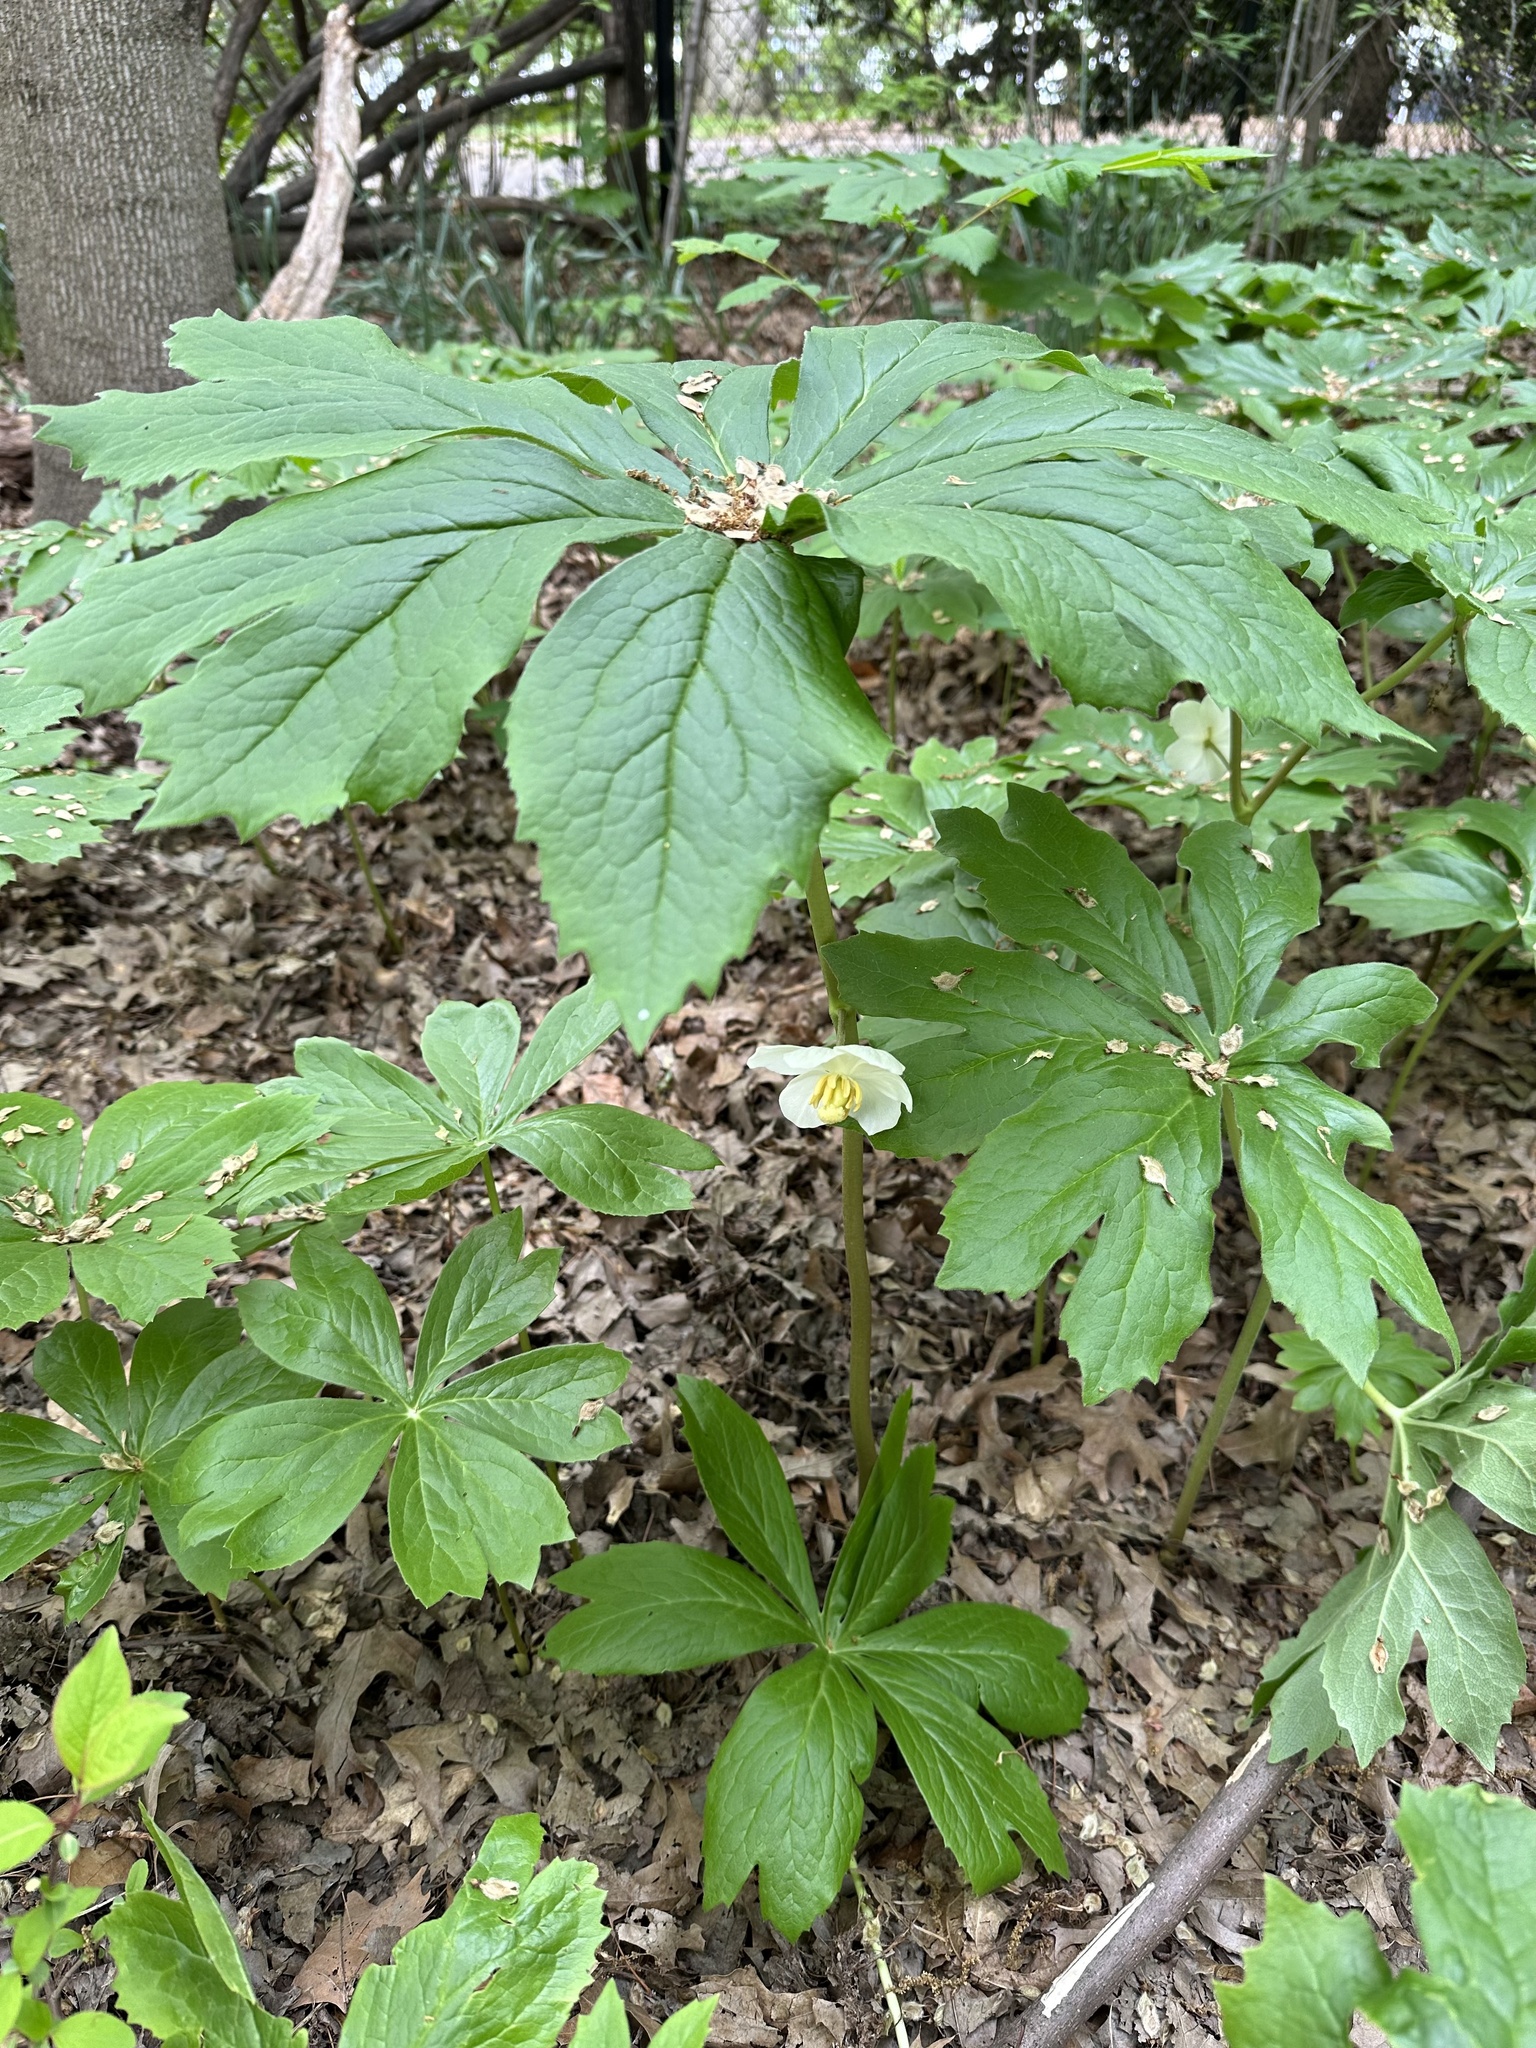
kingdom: Plantae
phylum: Tracheophyta
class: Magnoliopsida
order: Ranunculales
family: Berberidaceae
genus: Podophyllum
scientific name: Podophyllum peltatum
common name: Wild mandrake
